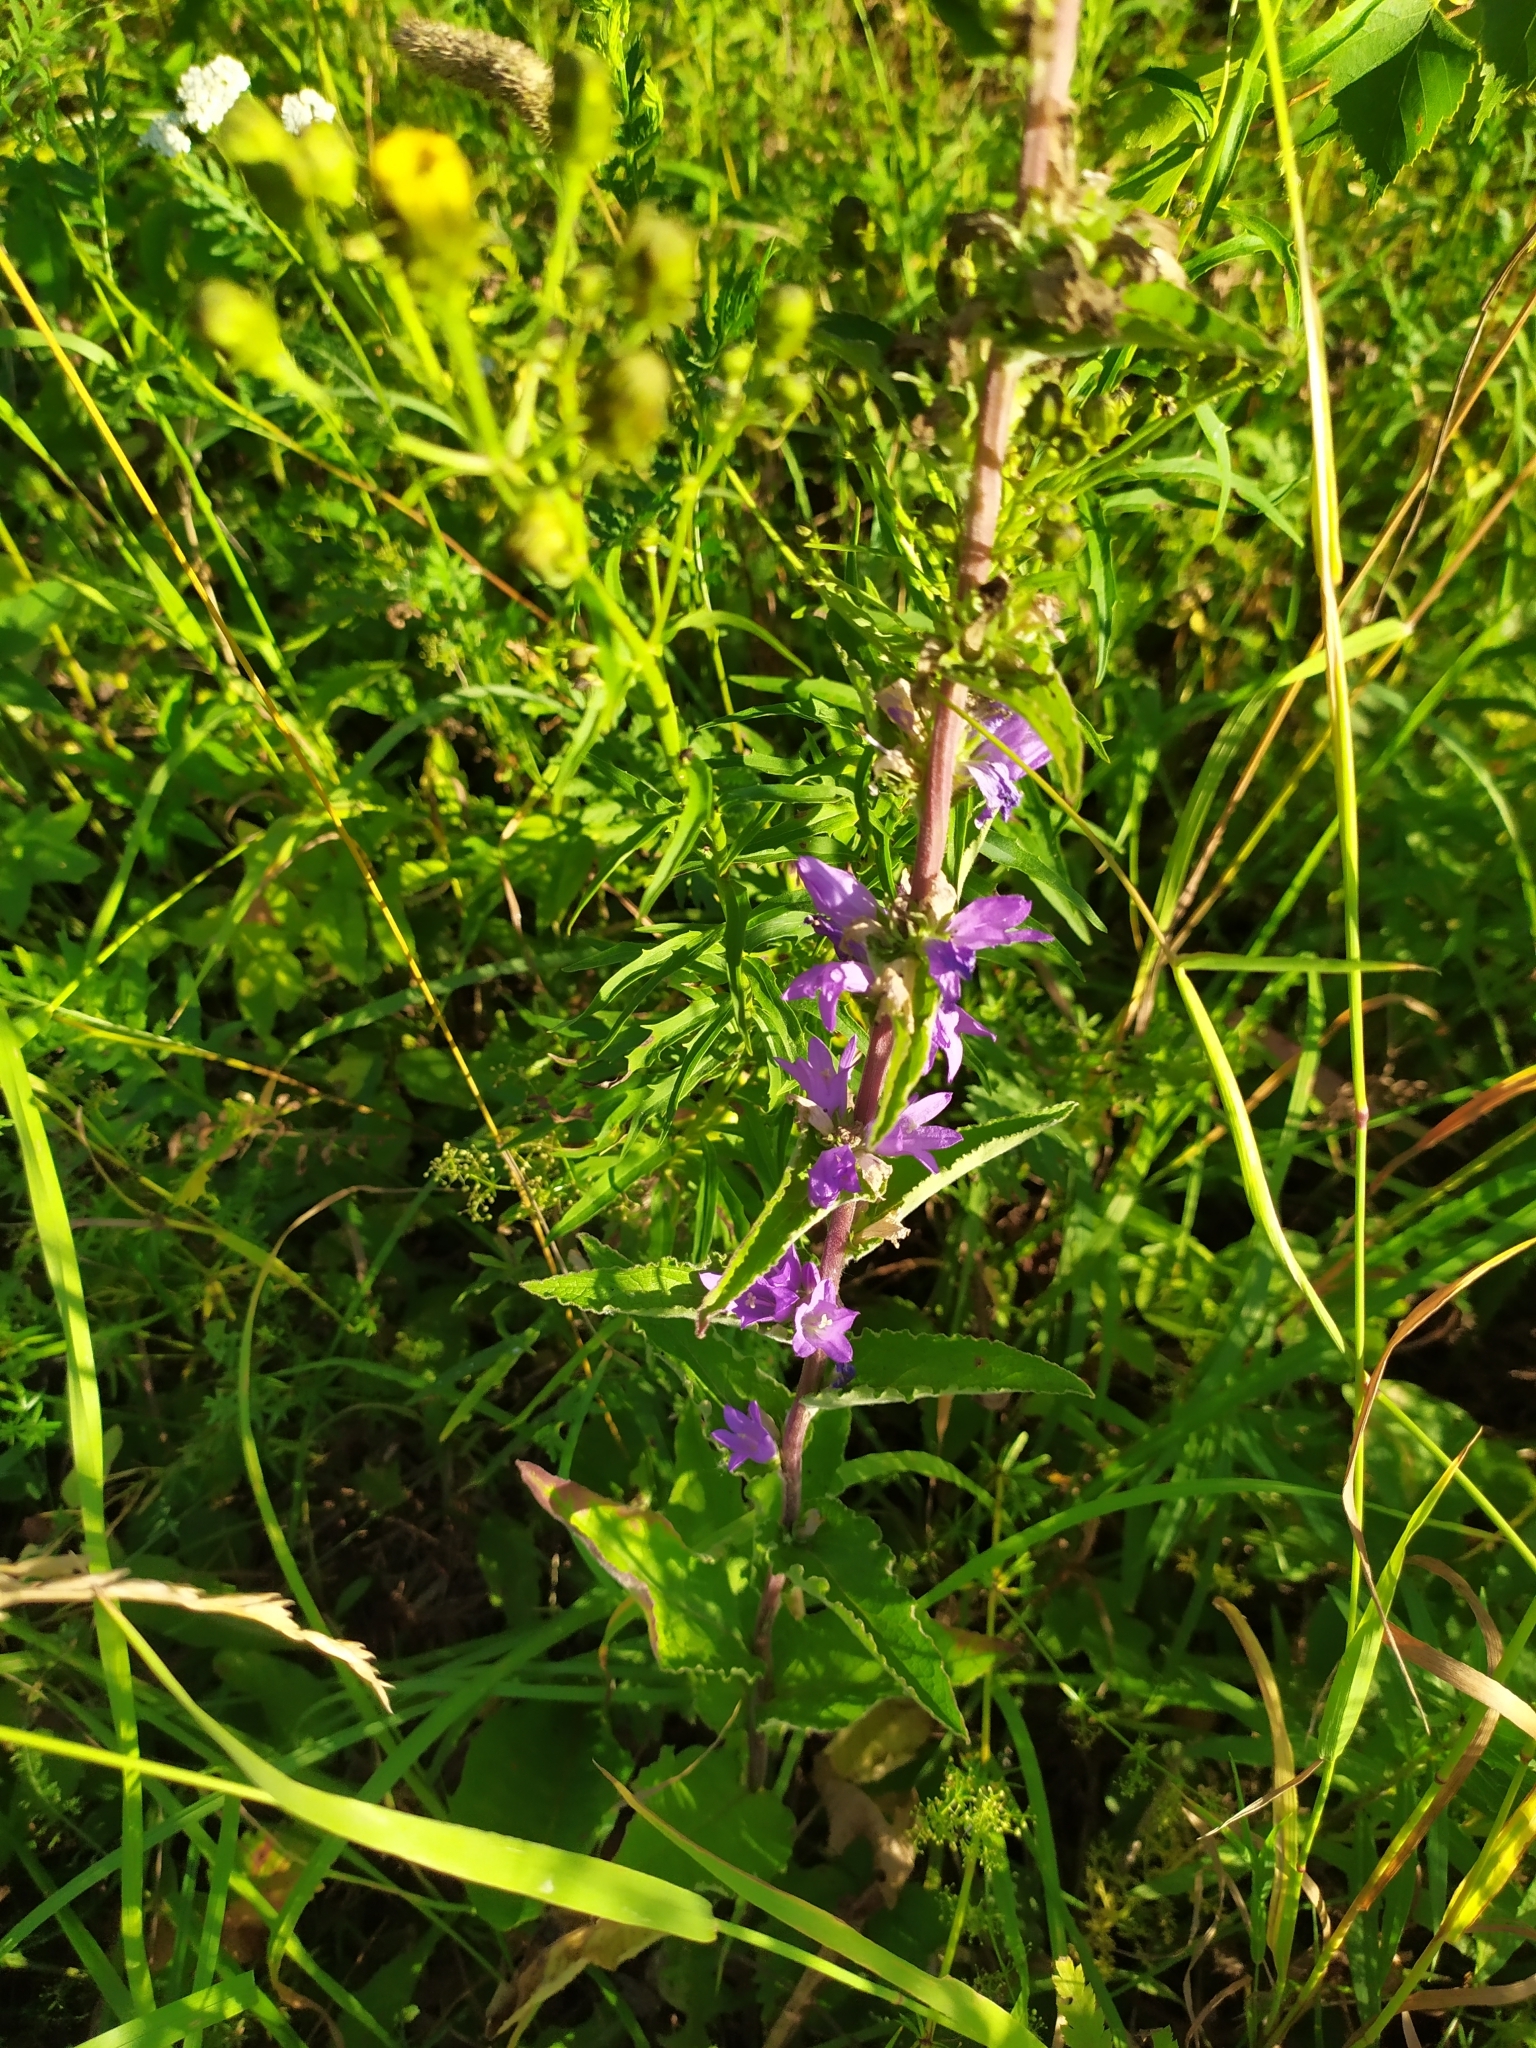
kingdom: Plantae
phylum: Tracheophyta
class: Magnoliopsida
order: Asterales
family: Campanulaceae
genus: Campanula
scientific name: Campanula glomerata
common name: Clustered bellflower
